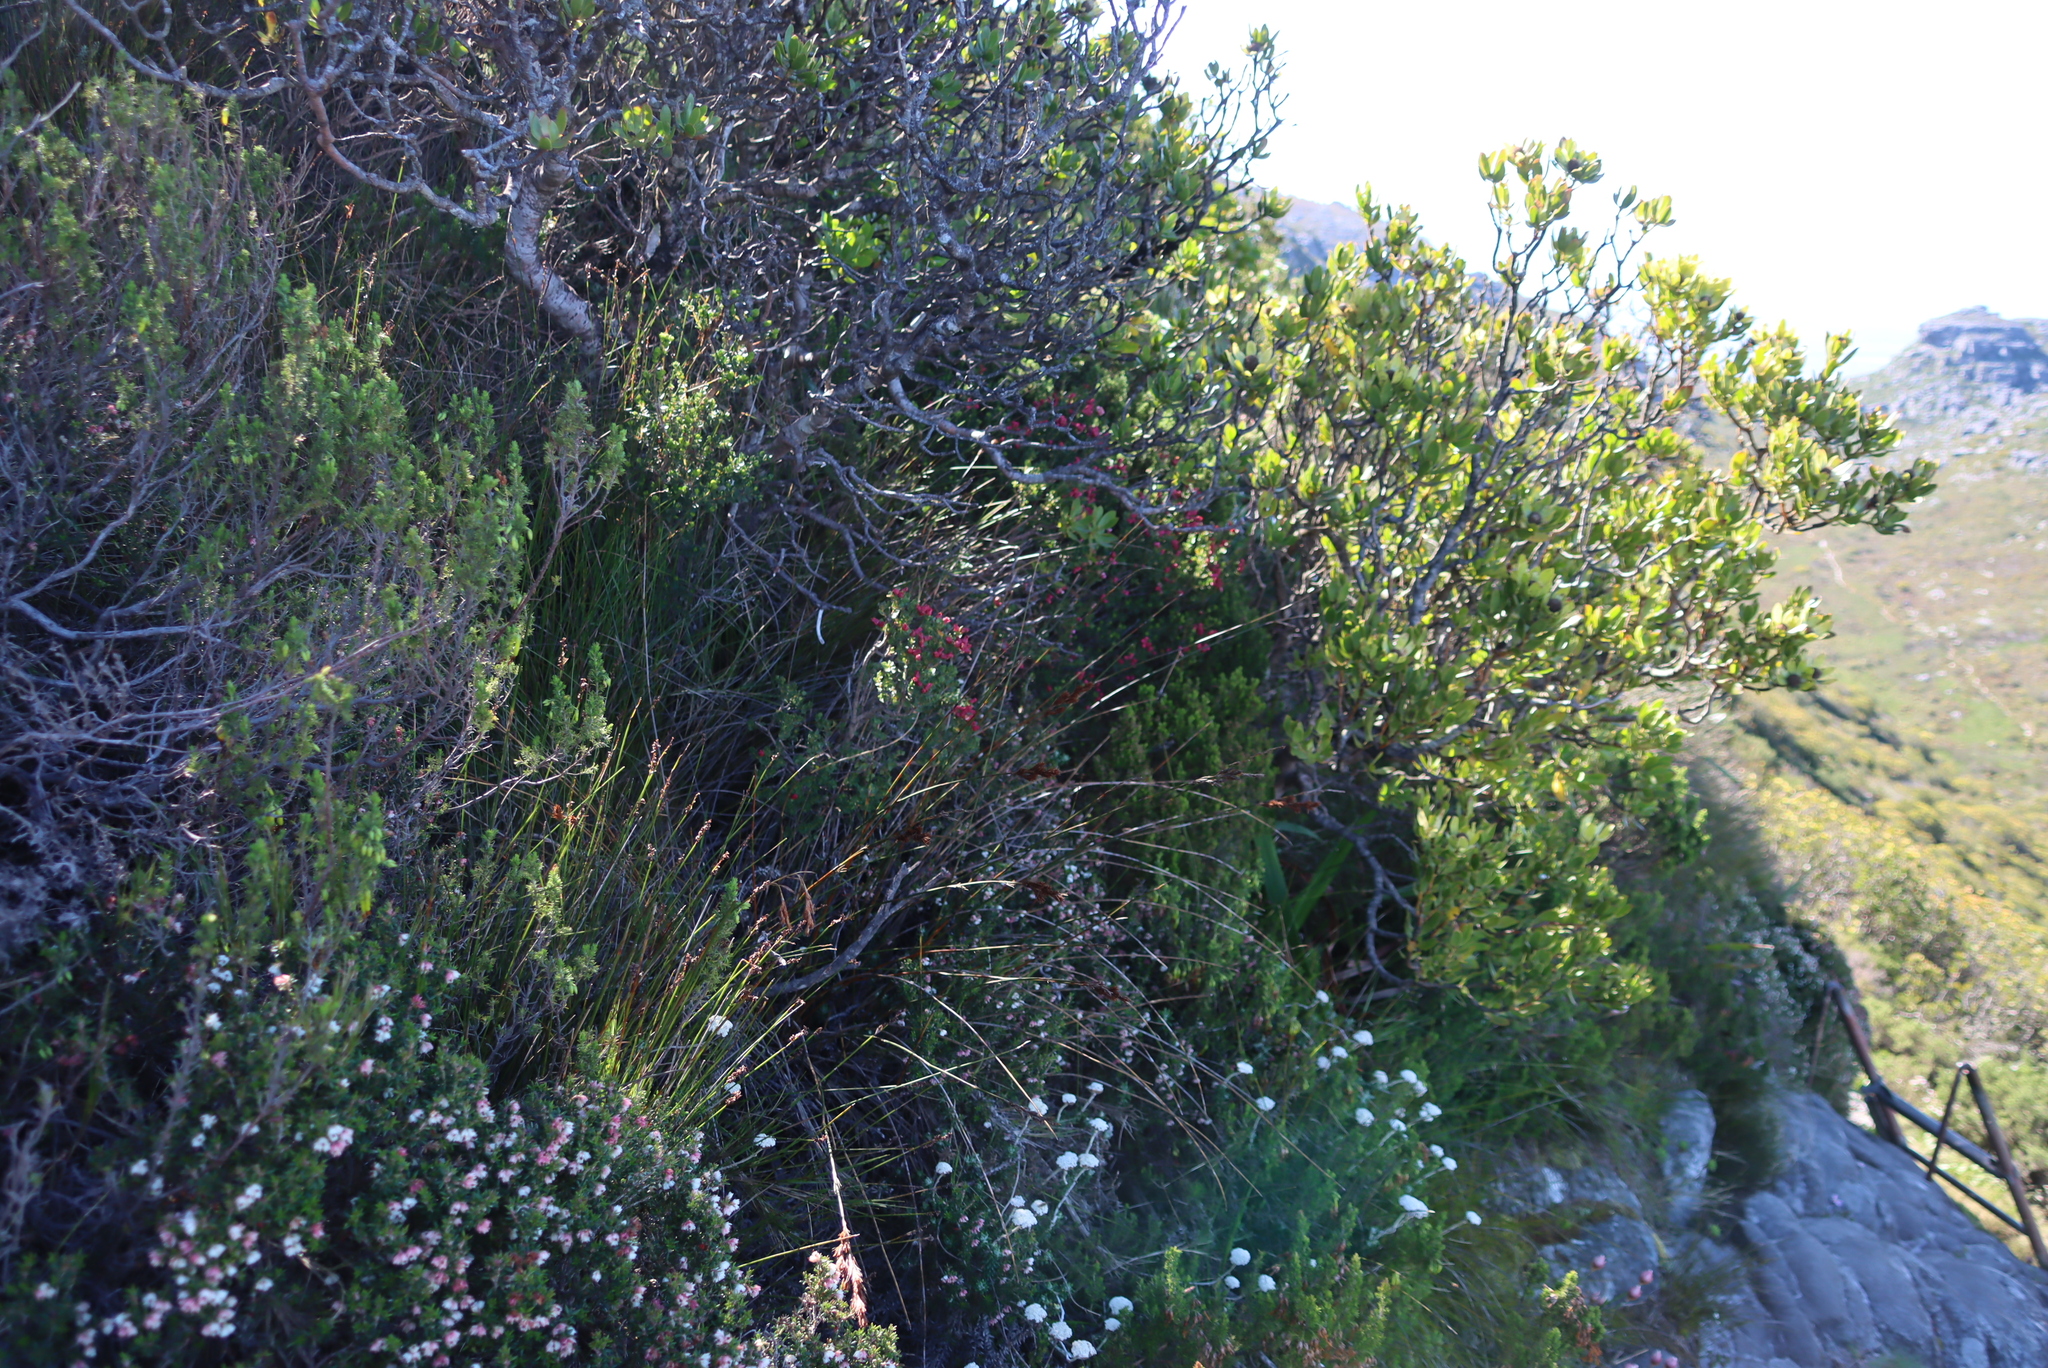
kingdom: Plantae
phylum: Tracheophyta
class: Magnoliopsida
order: Myrtales
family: Penaeaceae
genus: Brachysiphon
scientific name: Brachysiphon fucatus
